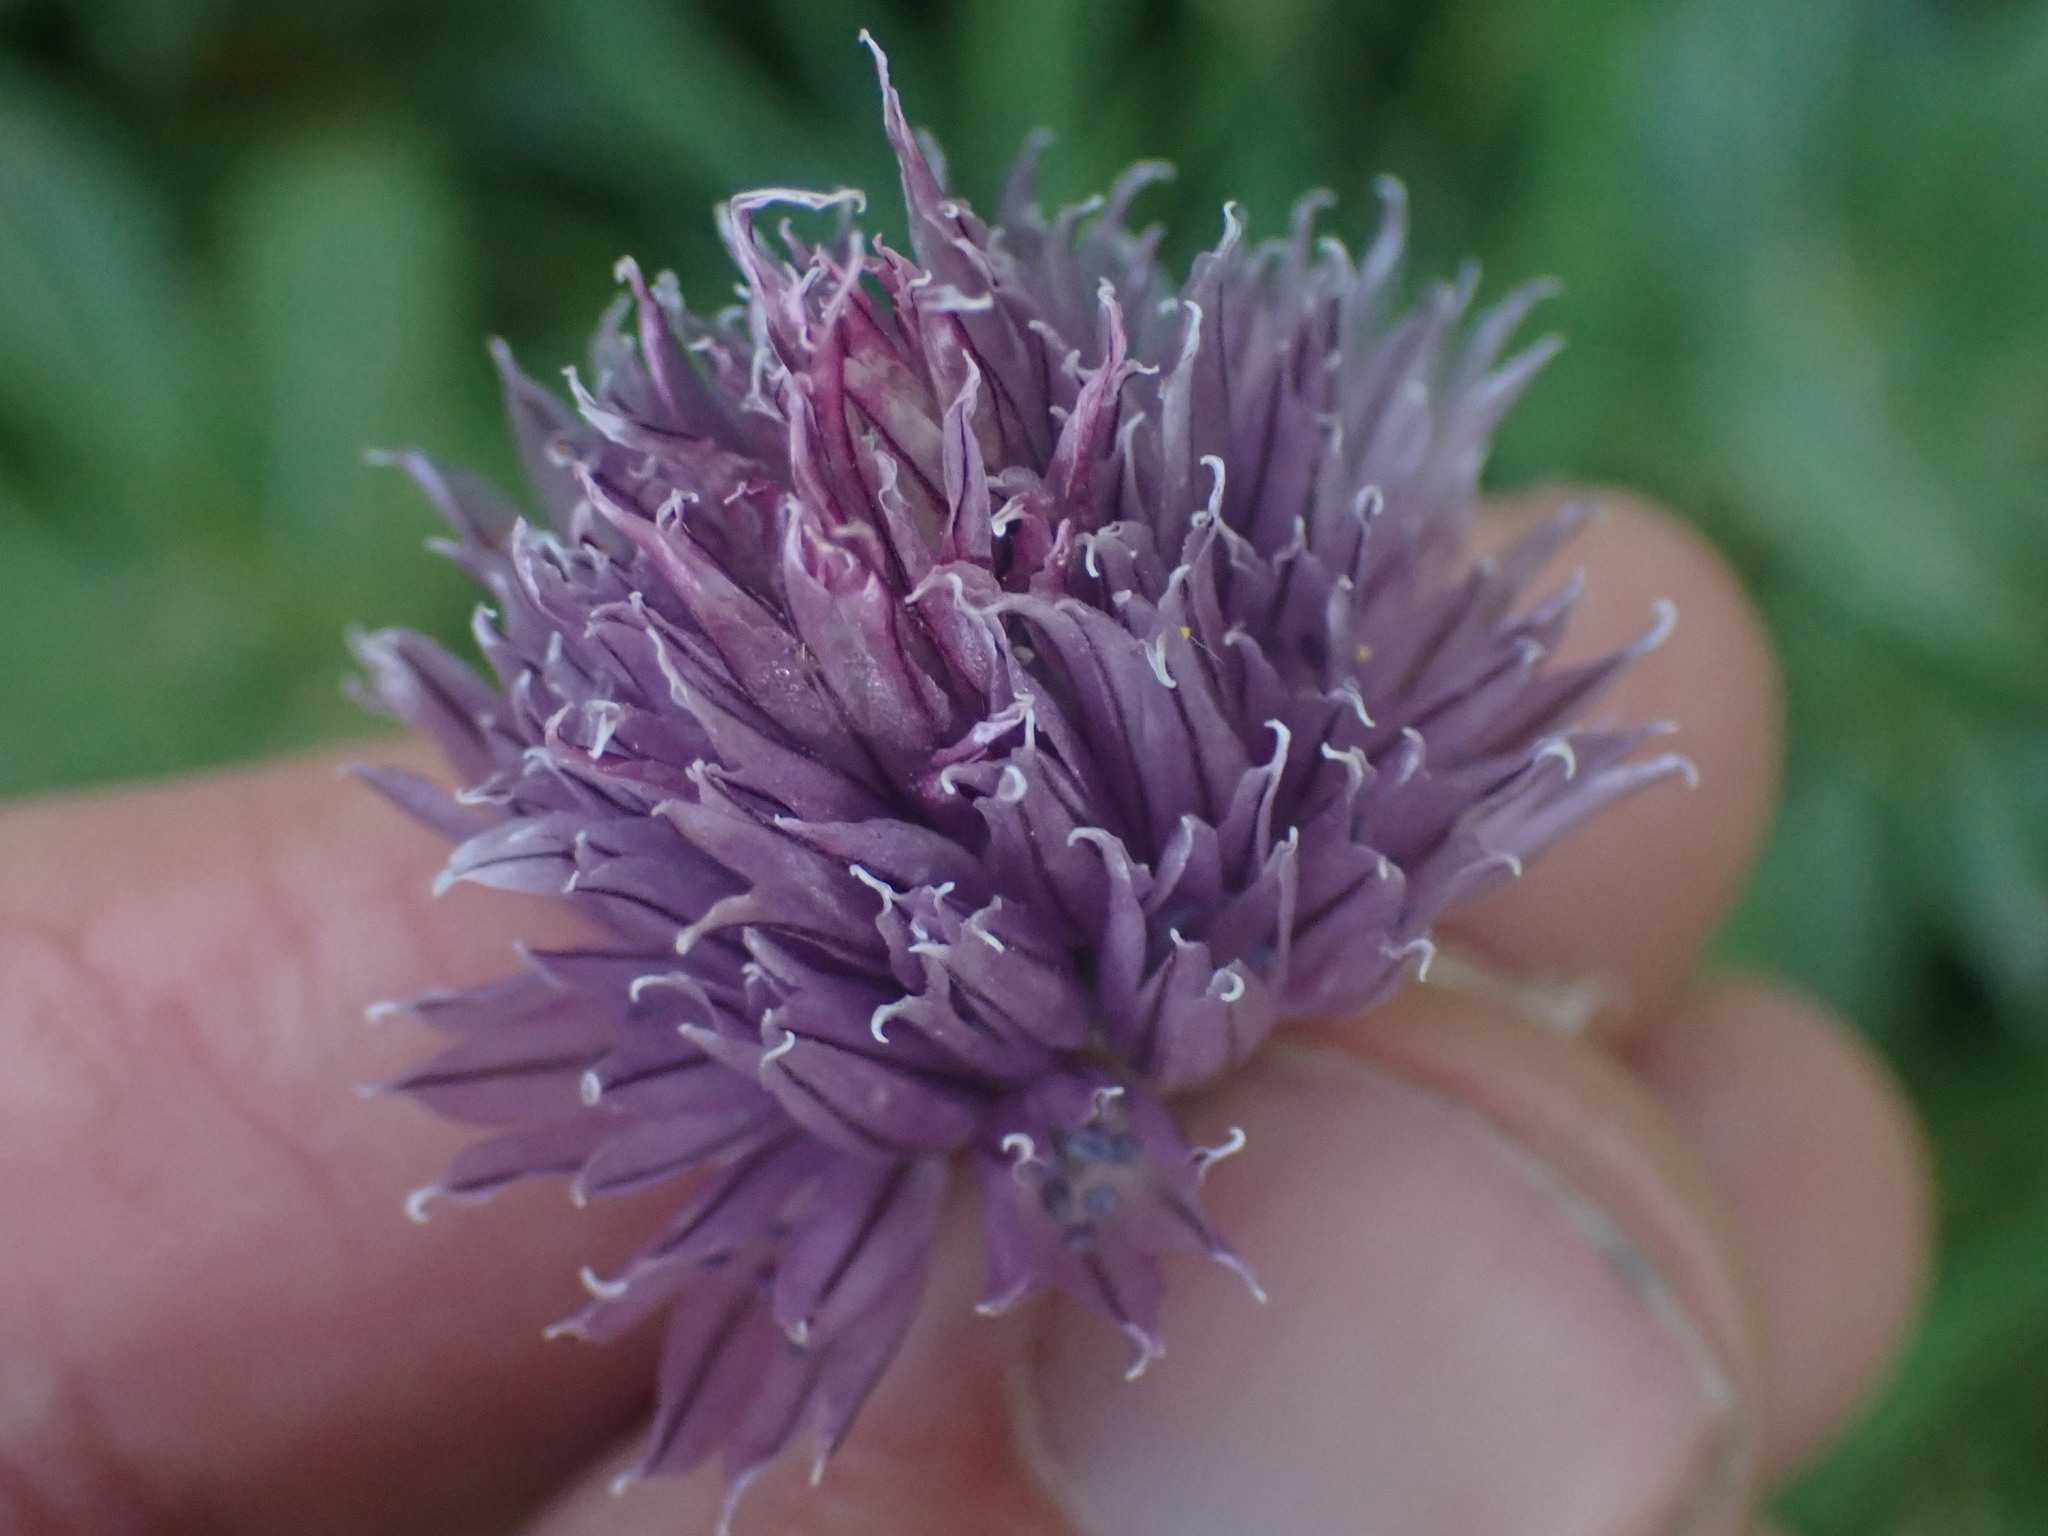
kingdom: Plantae
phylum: Tracheophyta
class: Liliopsida
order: Asparagales
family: Amaryllidaceae
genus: Allium
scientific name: Allium schoenoprasum
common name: Chives
